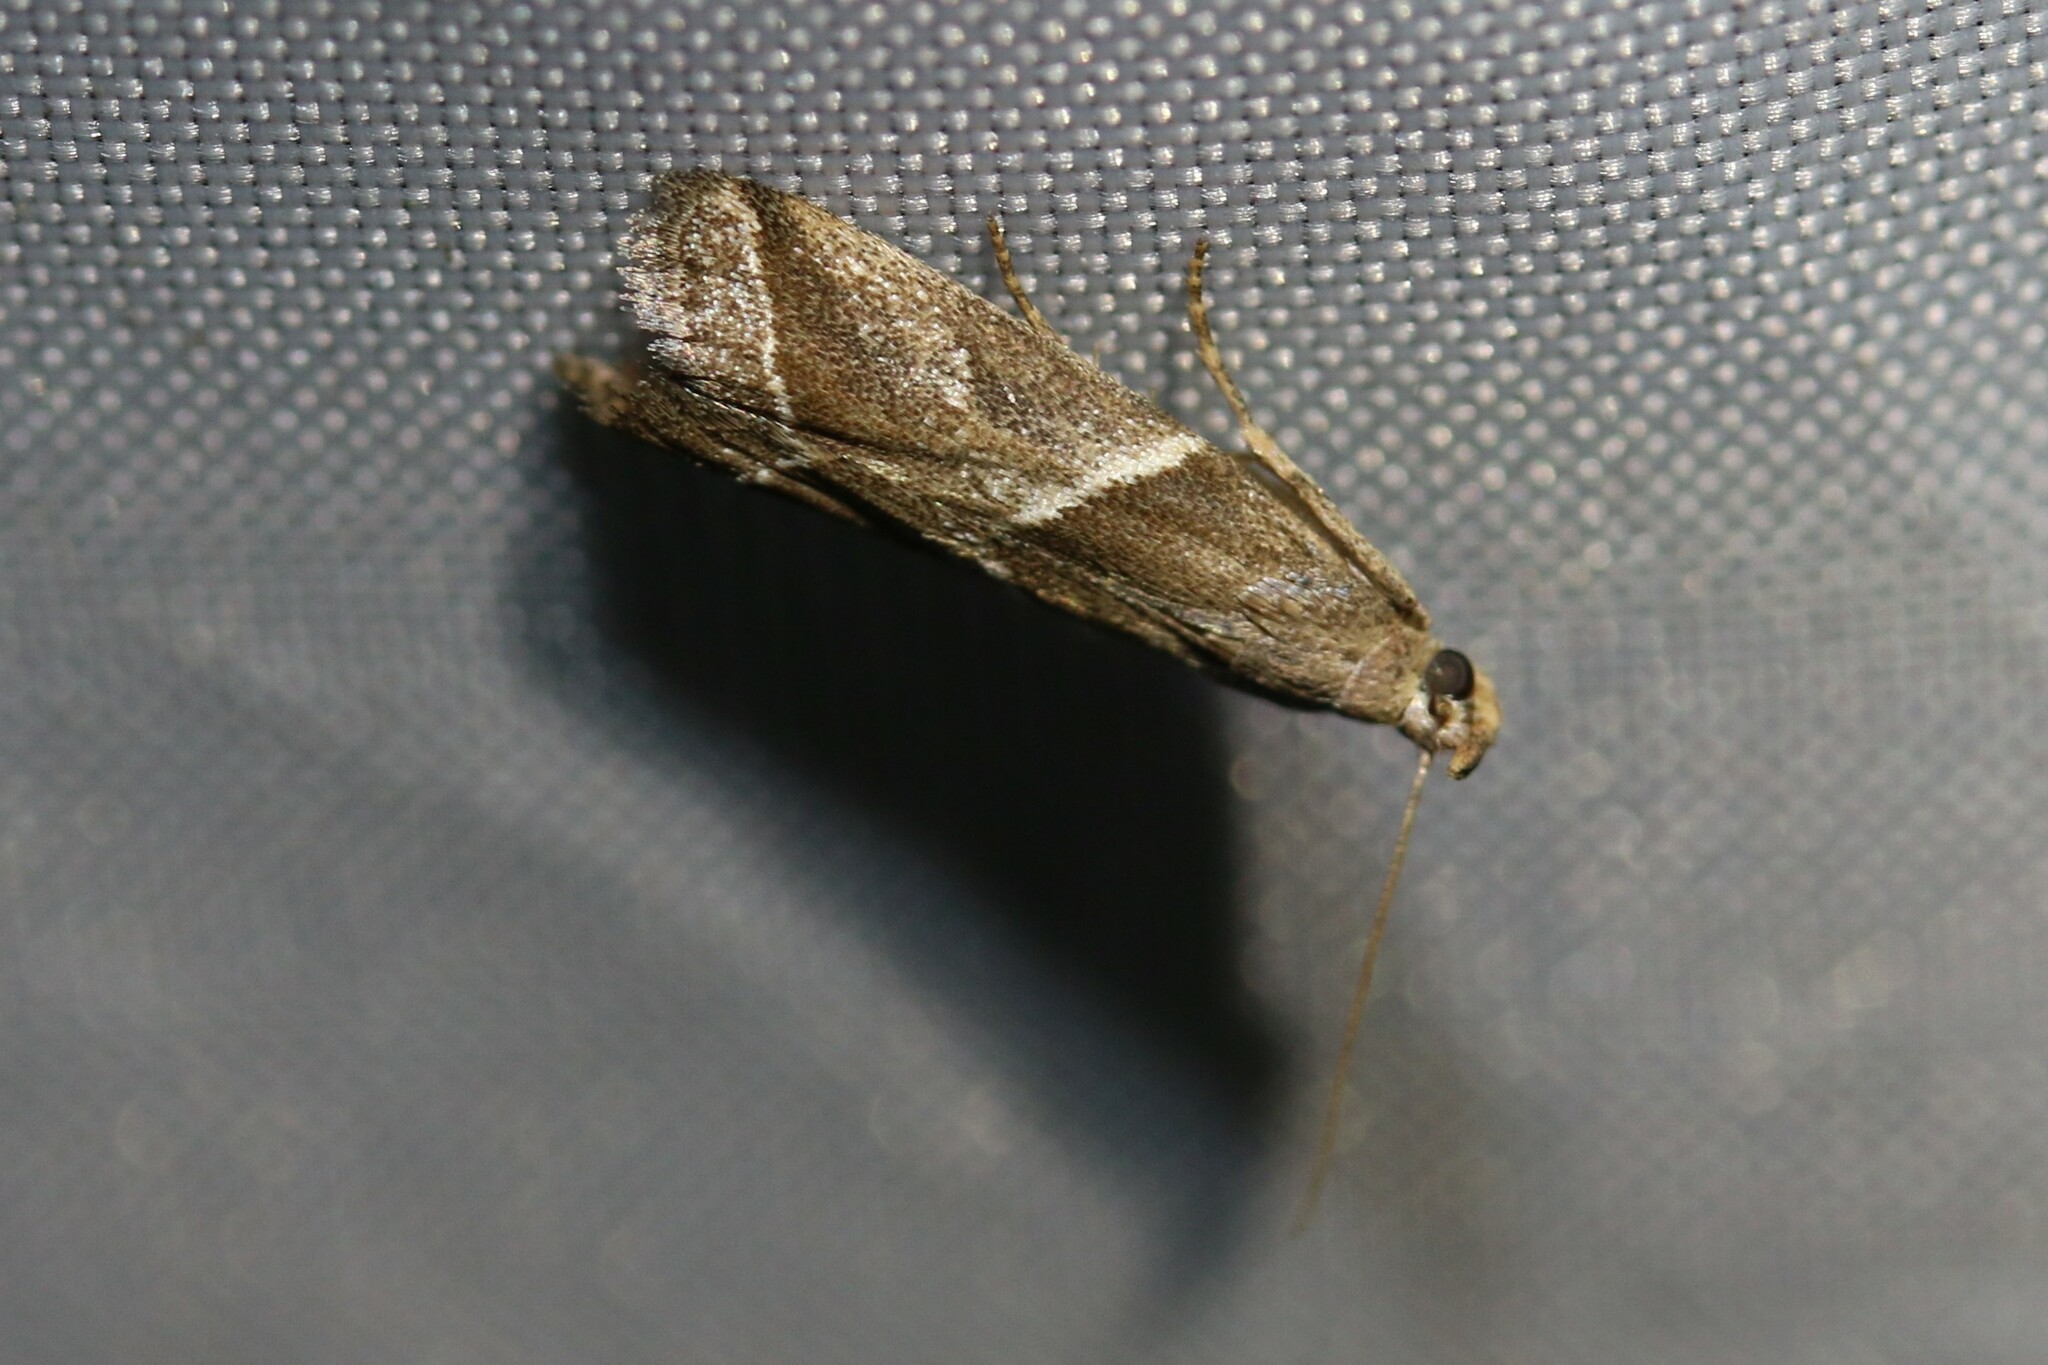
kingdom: Animalia
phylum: Arthropoda
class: Insecta
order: Lepidoptera
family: Pyralidae
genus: Nyctegretis
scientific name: Nyctegretis lineana
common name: Agate knot-horn
